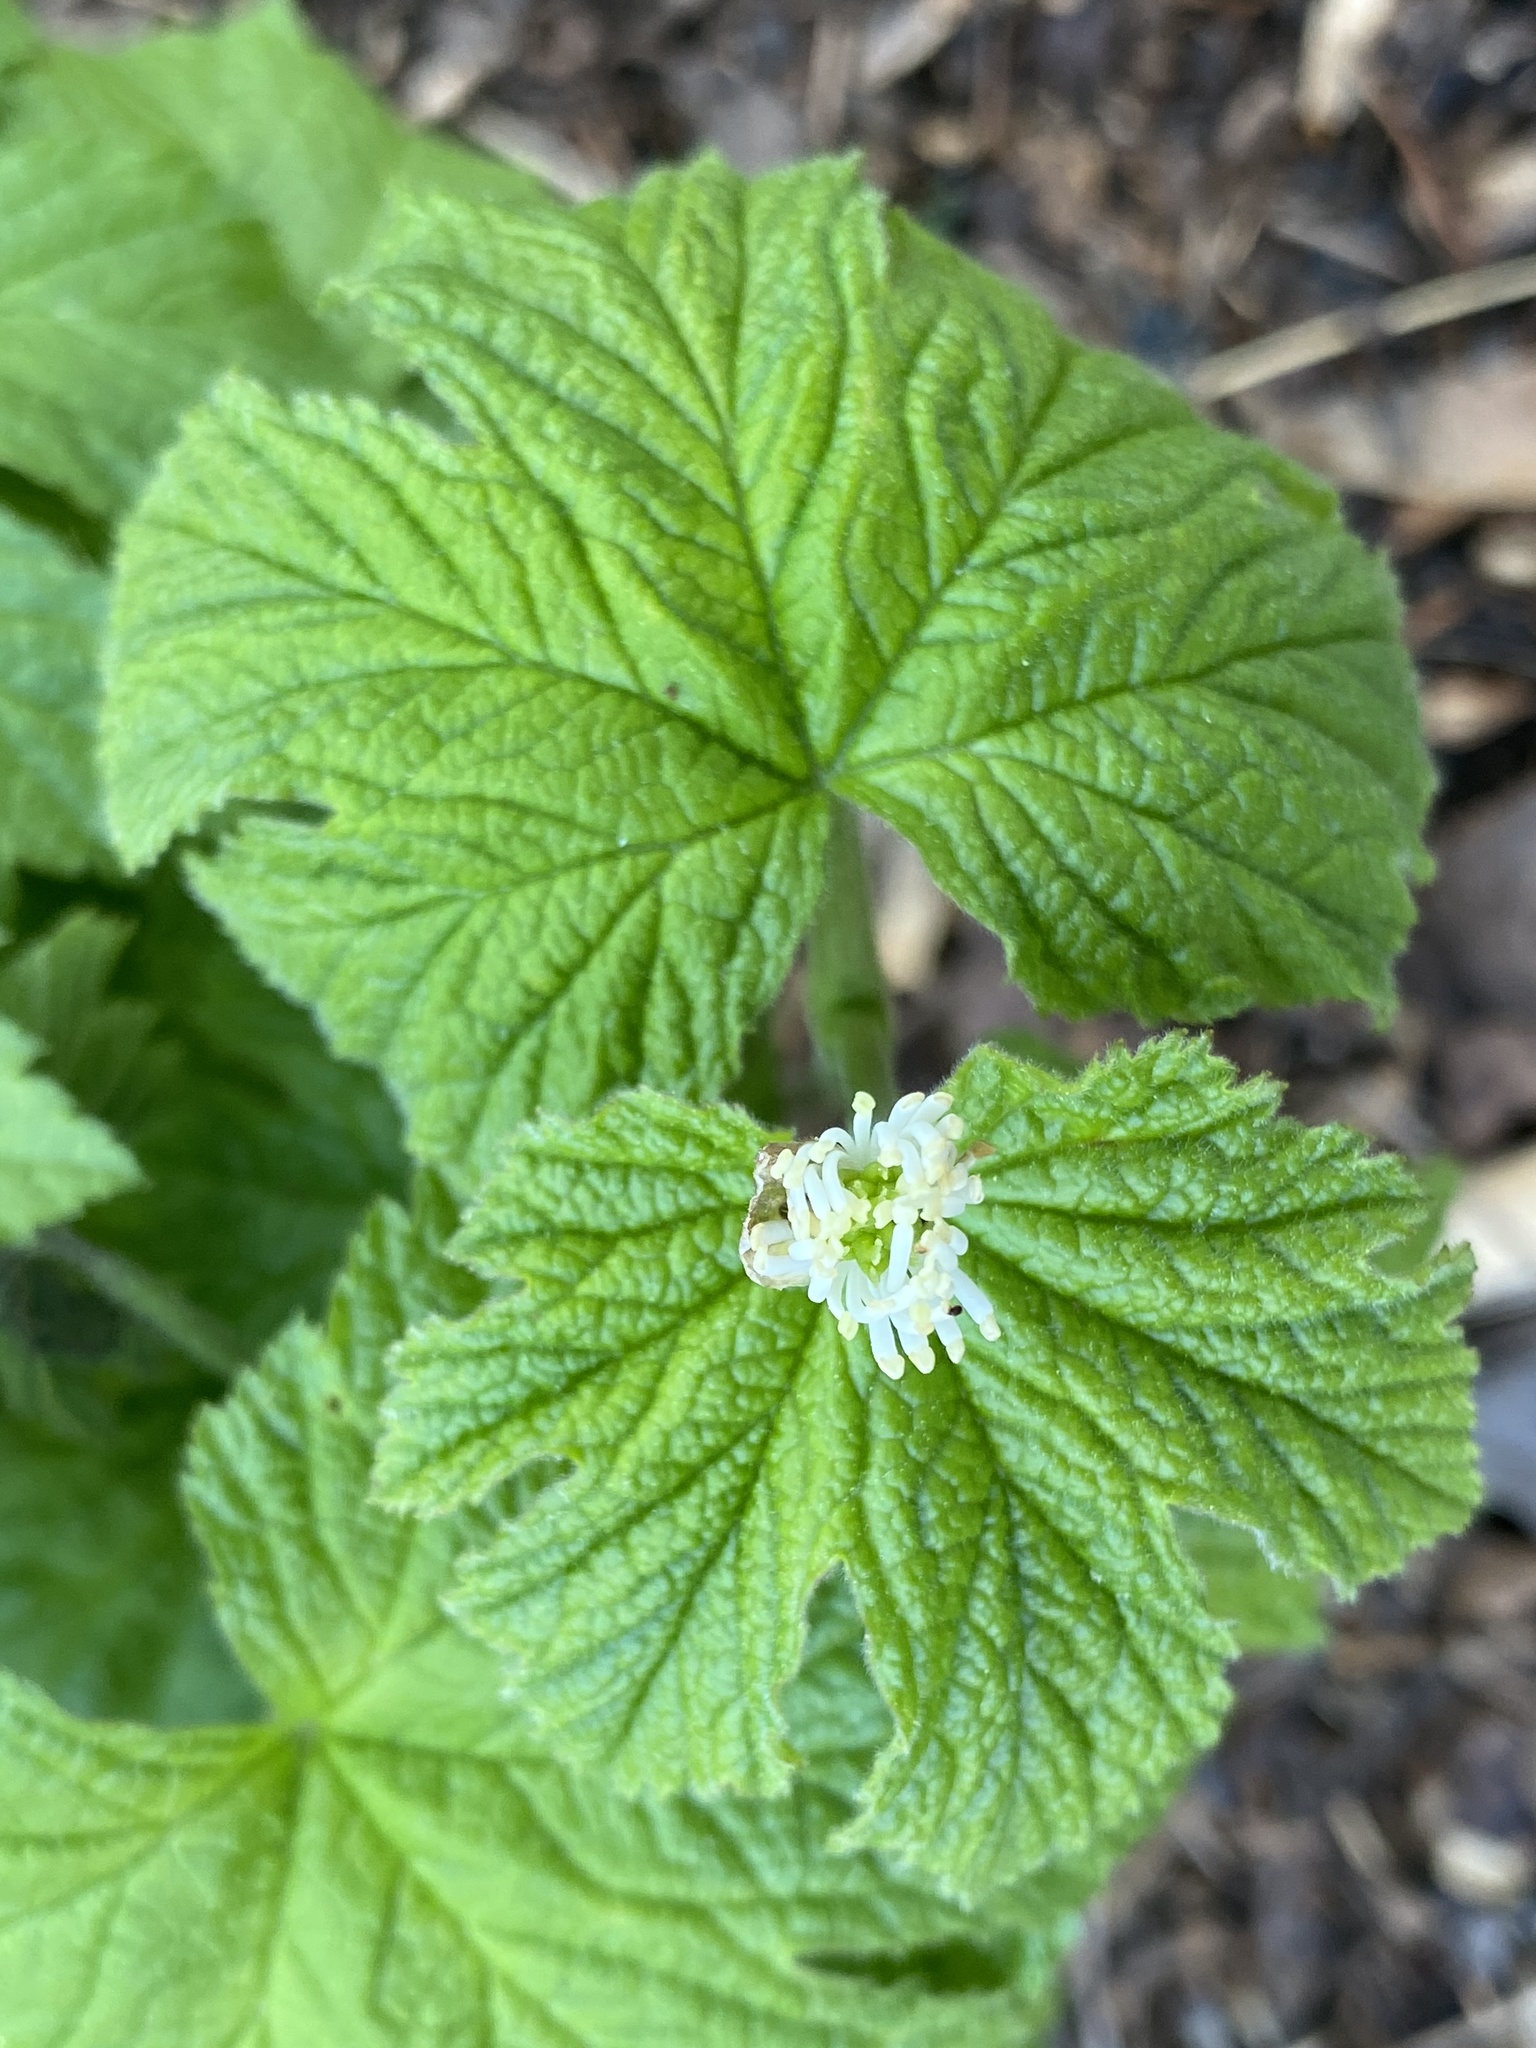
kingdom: Plantae
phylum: Tracheophyta
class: Magnoliopsida
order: Ranunculales
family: Ranunculaceae
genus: Hydrastis
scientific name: Hydrastis canadensis
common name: Goldenseal
